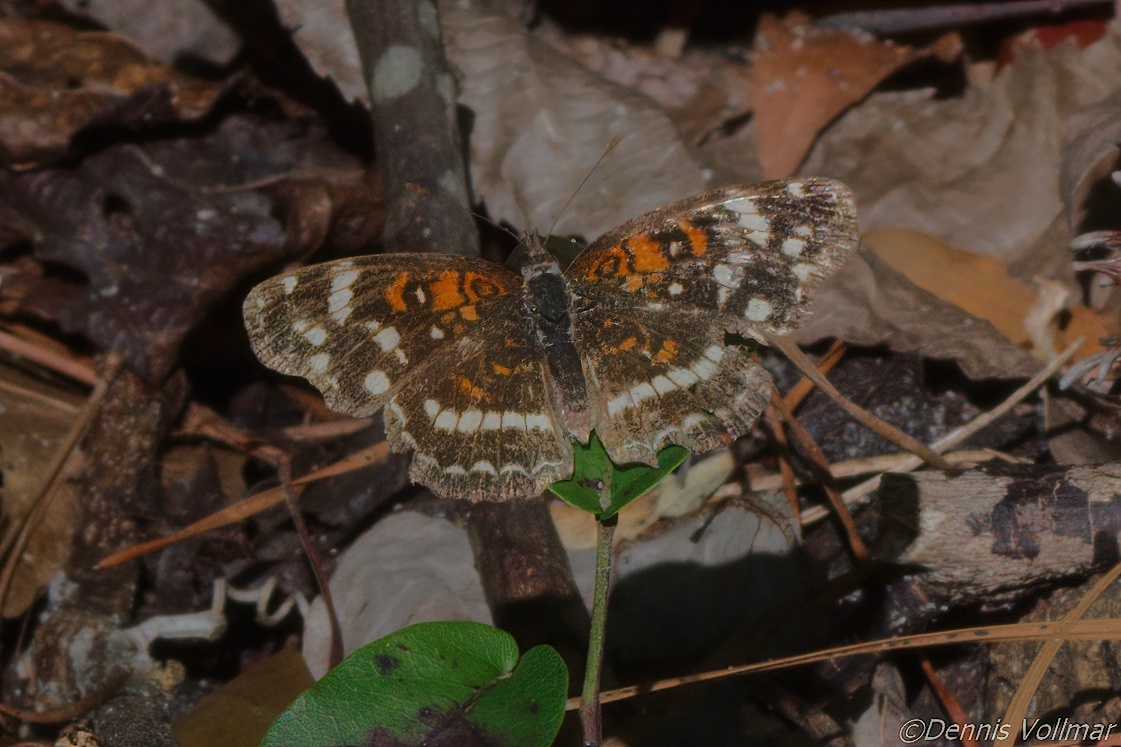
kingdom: Animalia
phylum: Arthropoda
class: Insecta
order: Lepidoptera
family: Nymphalidae
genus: Anthanassa
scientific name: Anthanassa taxana
